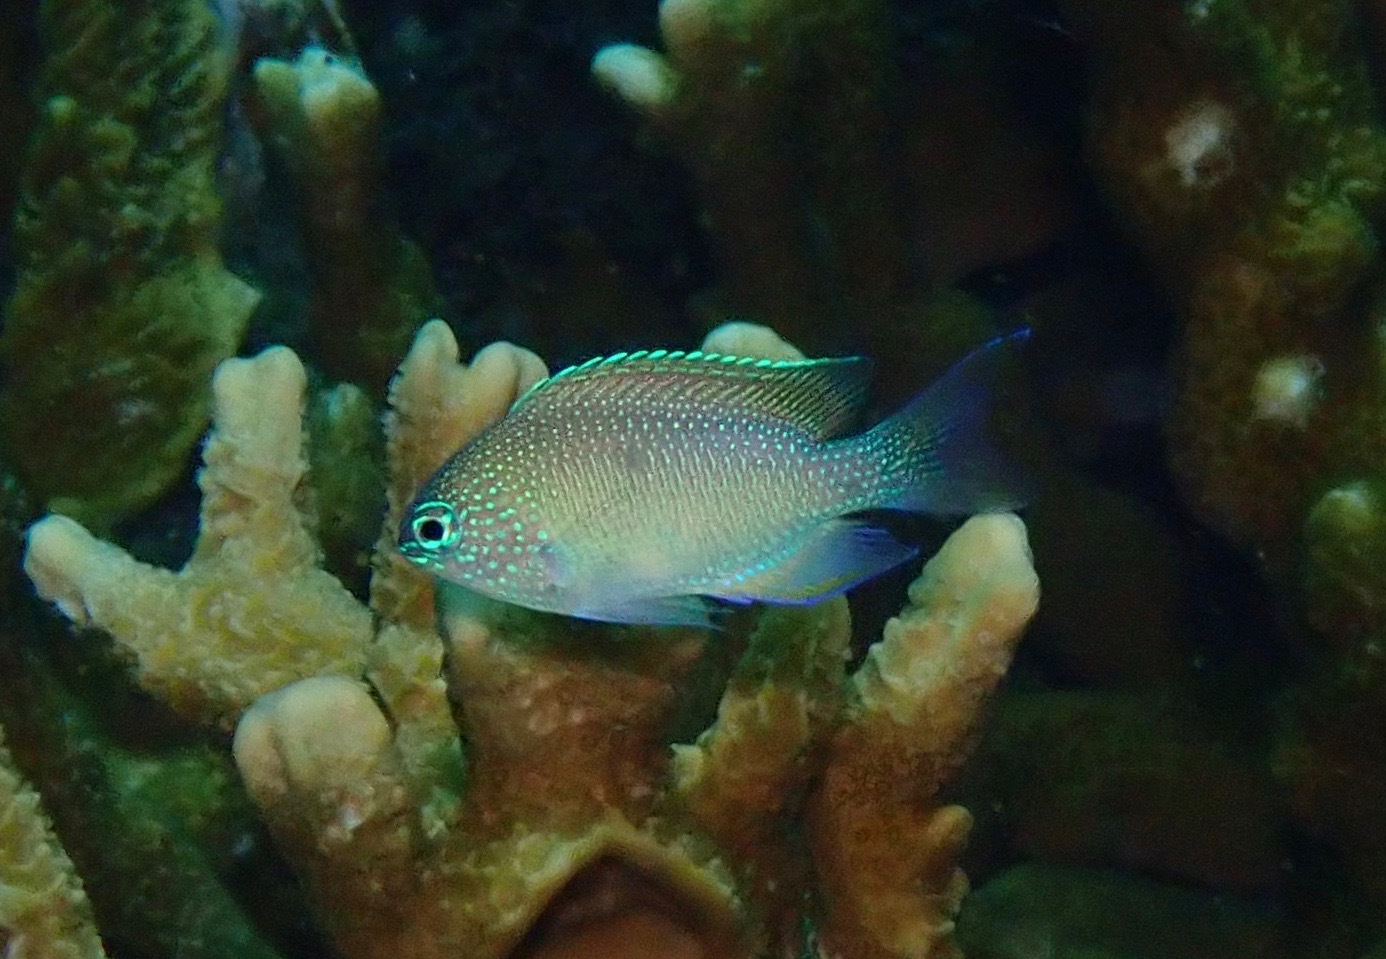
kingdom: Animalia
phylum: Chordata
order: Perciformes
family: Pomacentridae
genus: Pomacentrus
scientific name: Pomacentrus pavo
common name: Sapphire damsel
